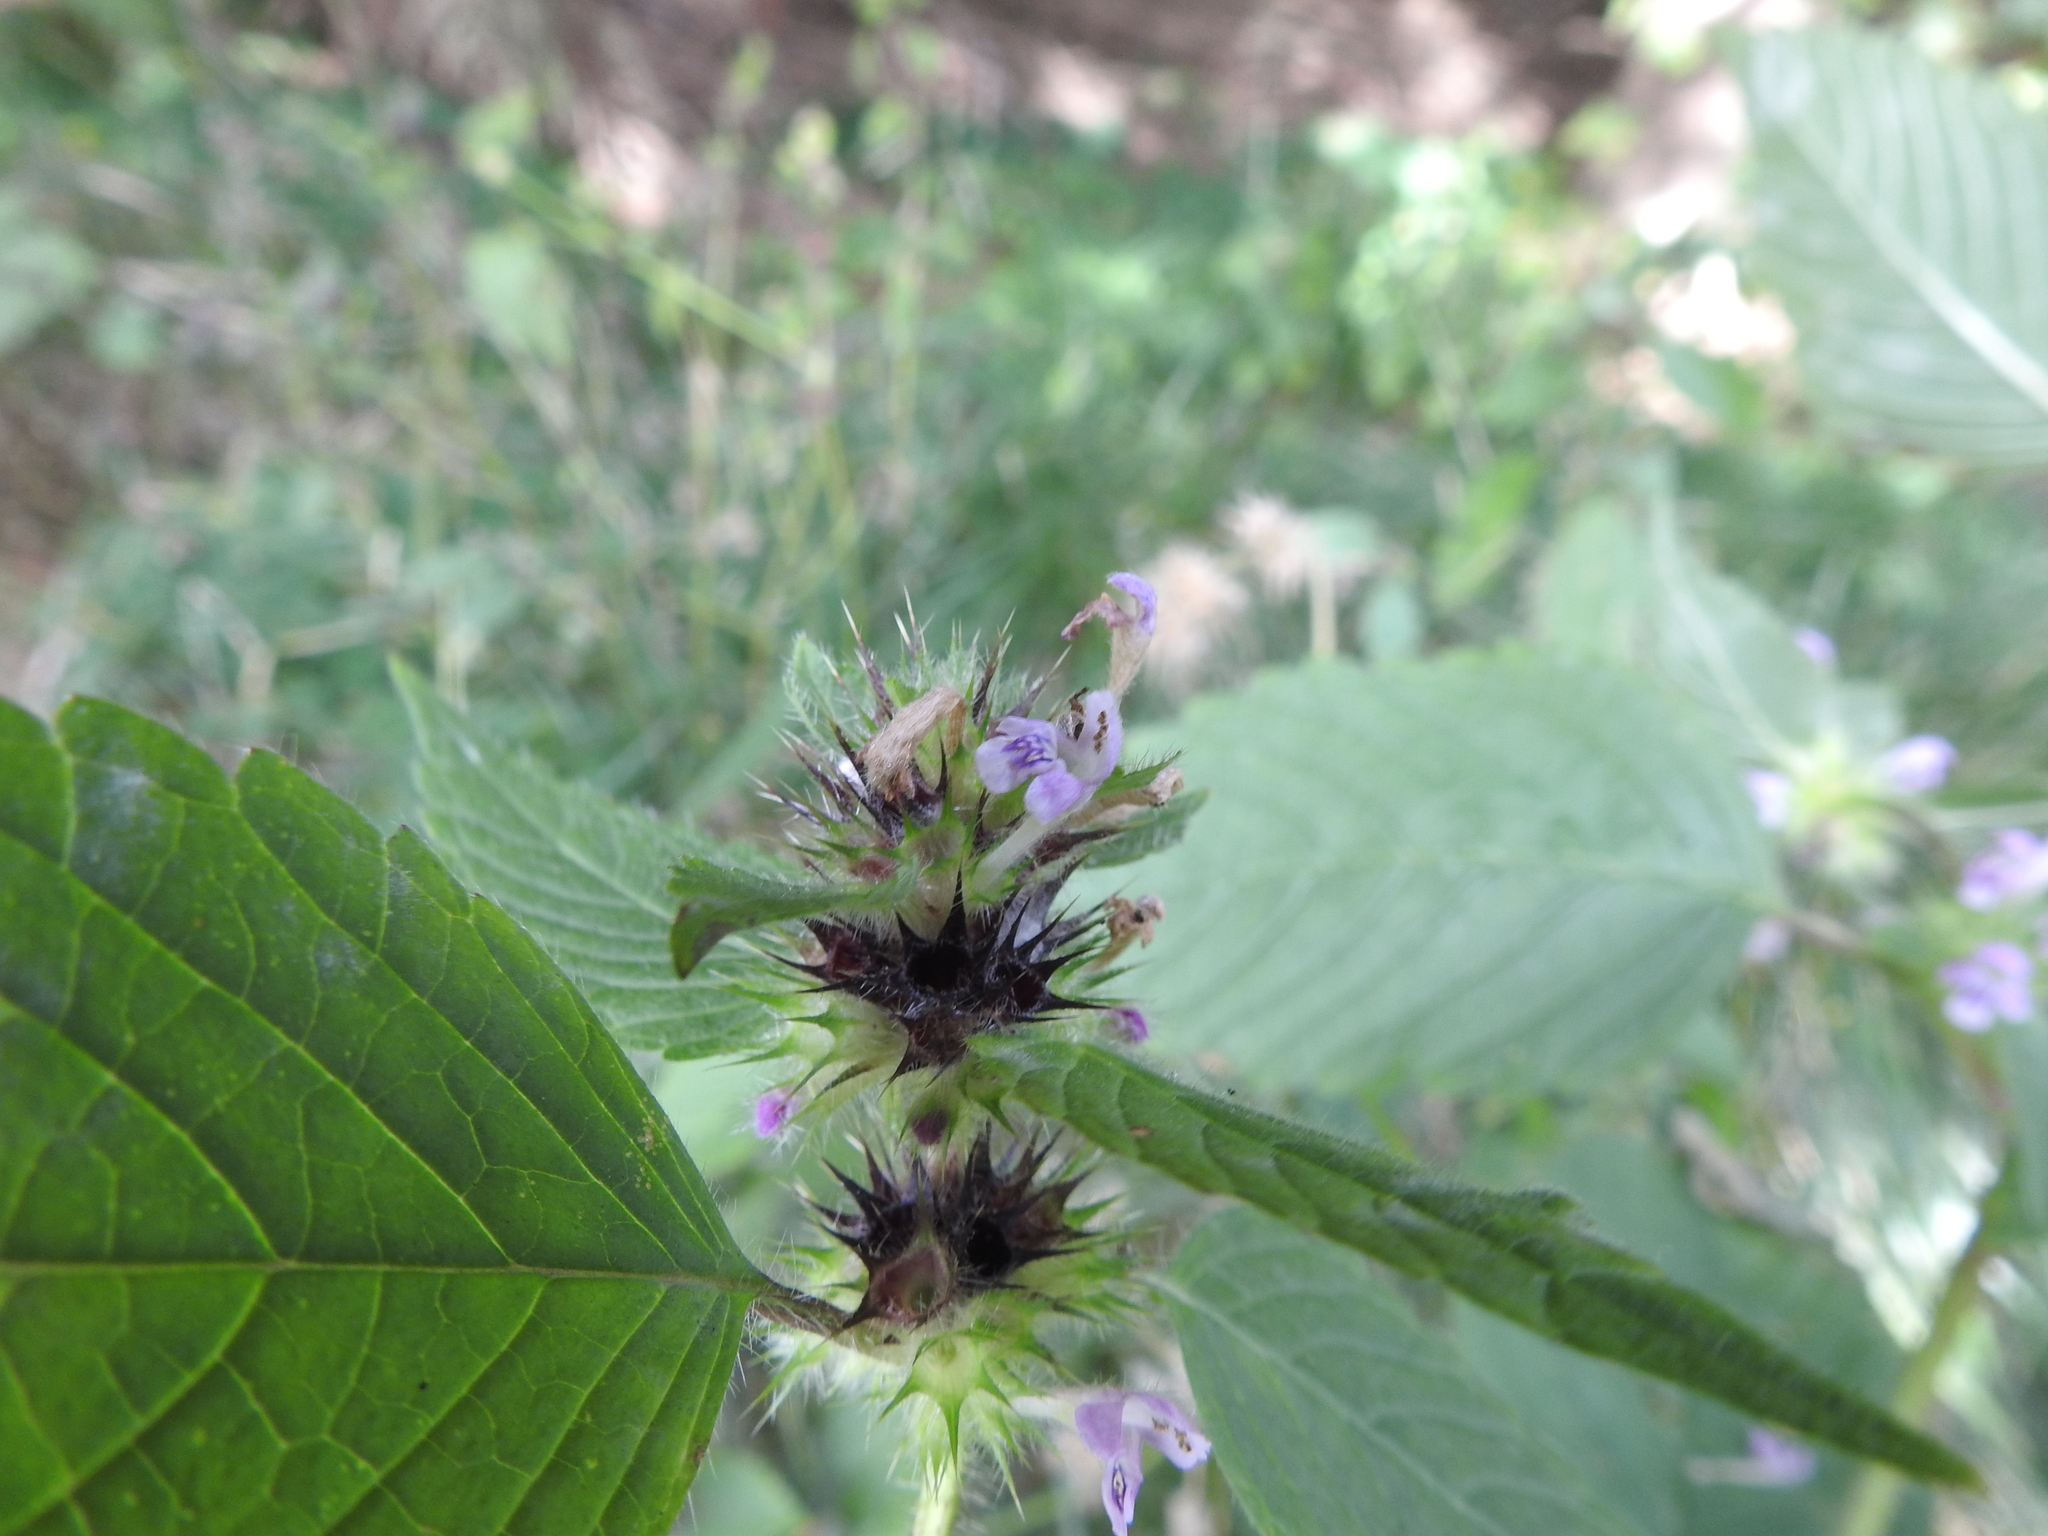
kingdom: Plantae
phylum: Tracheophyta
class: Magnoliopsida
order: Lamiales
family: Lamiaceae
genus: Galeopsis
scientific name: Galeopsis tetrahit
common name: Common hemp-nettle
